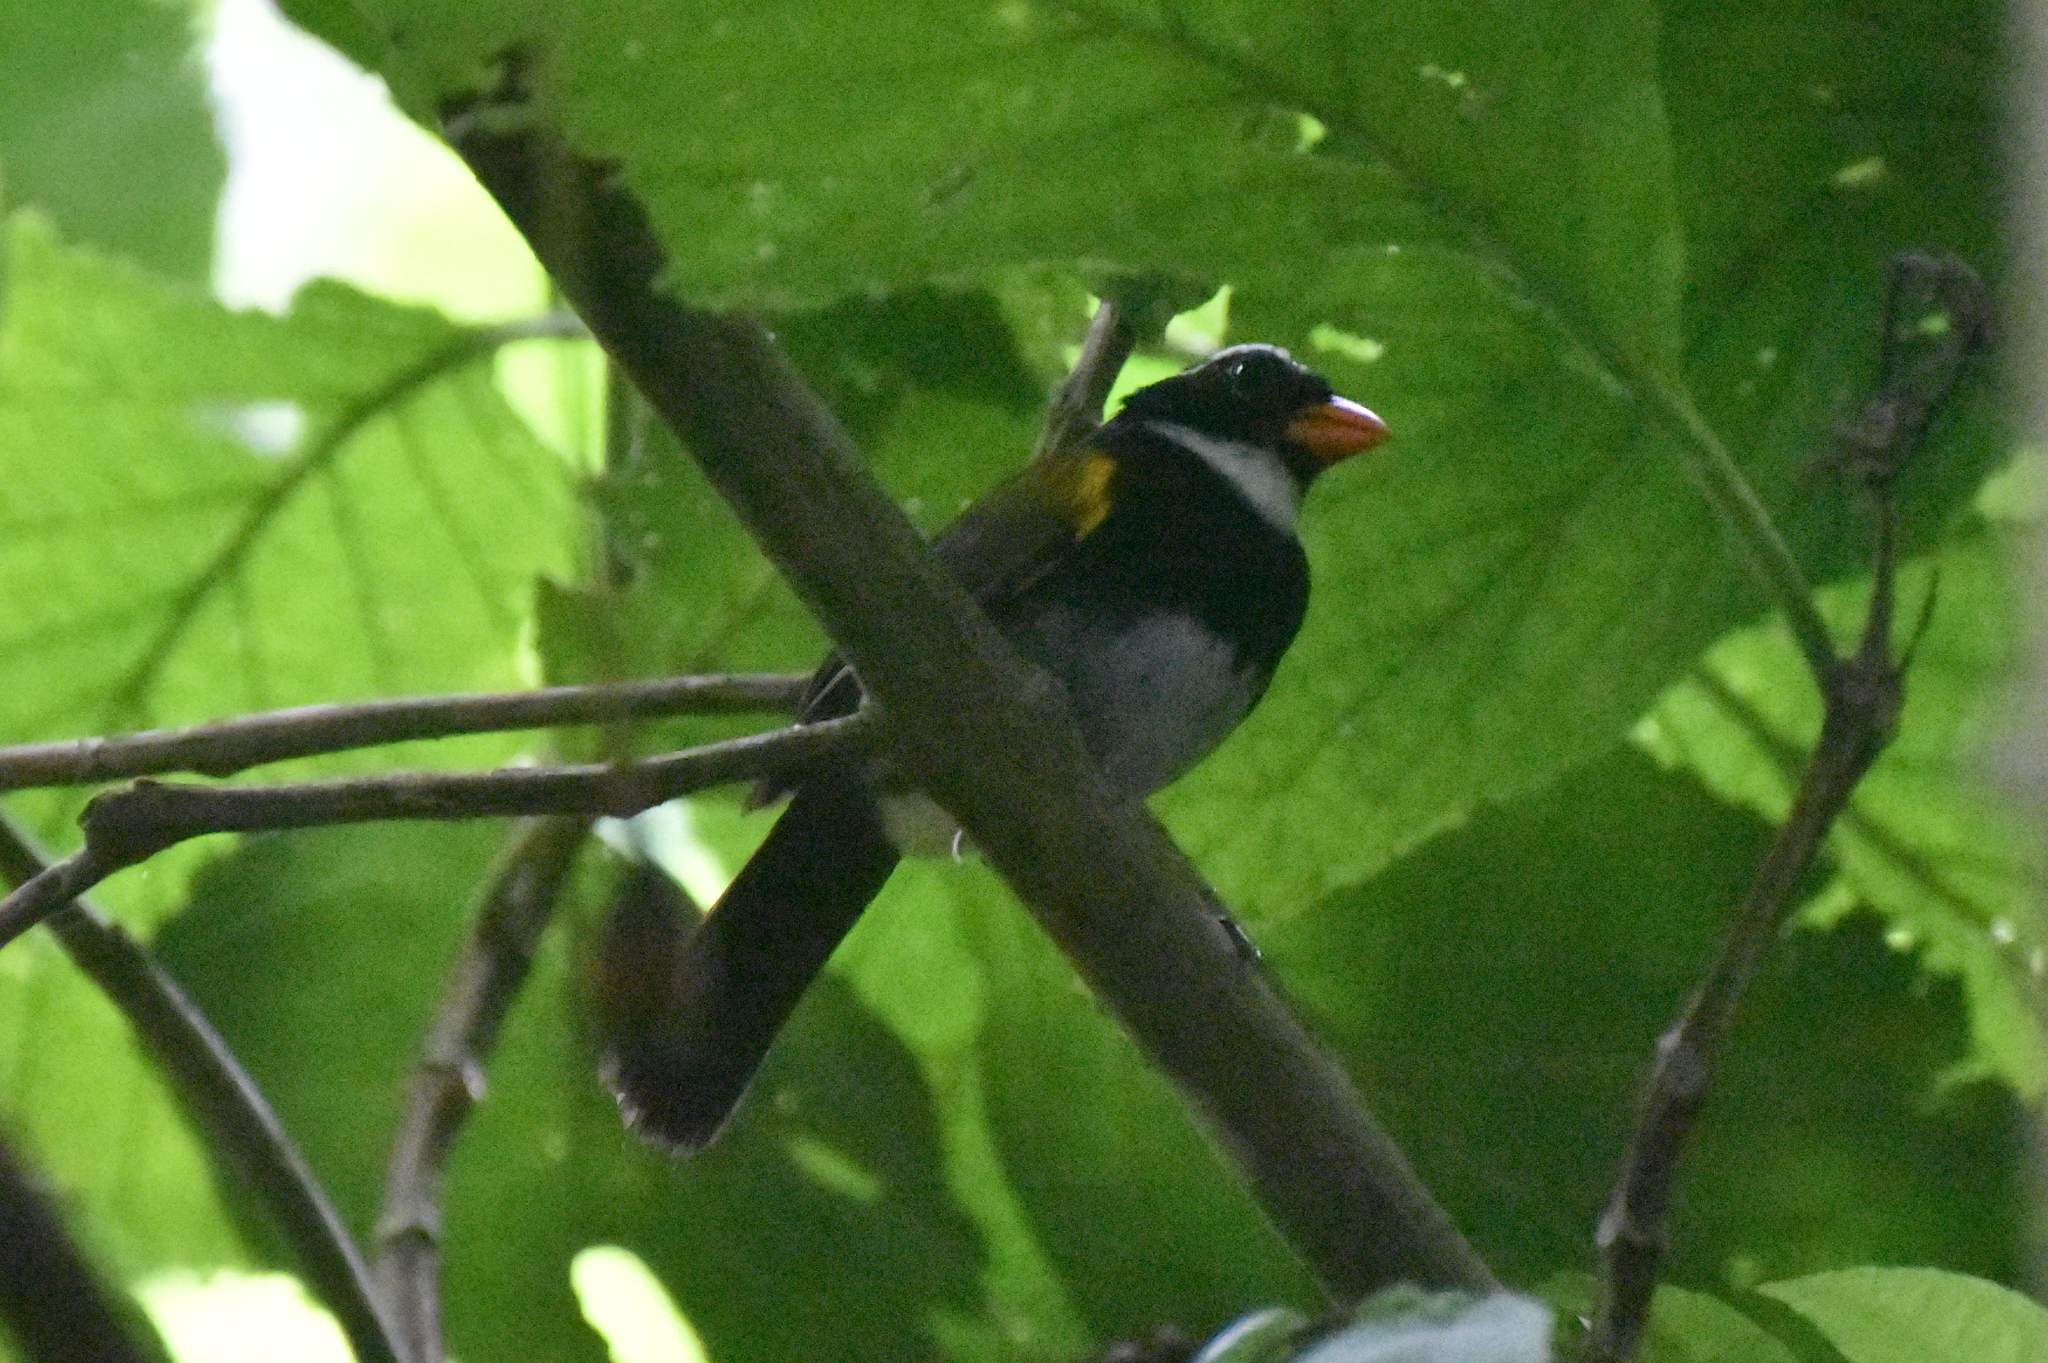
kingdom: Animalia
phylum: Chordata
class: Aves
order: Passeriformes
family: Passerellidae
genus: Arremon
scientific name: Arremon aurantiirostris
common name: Orange-billed sparrow
